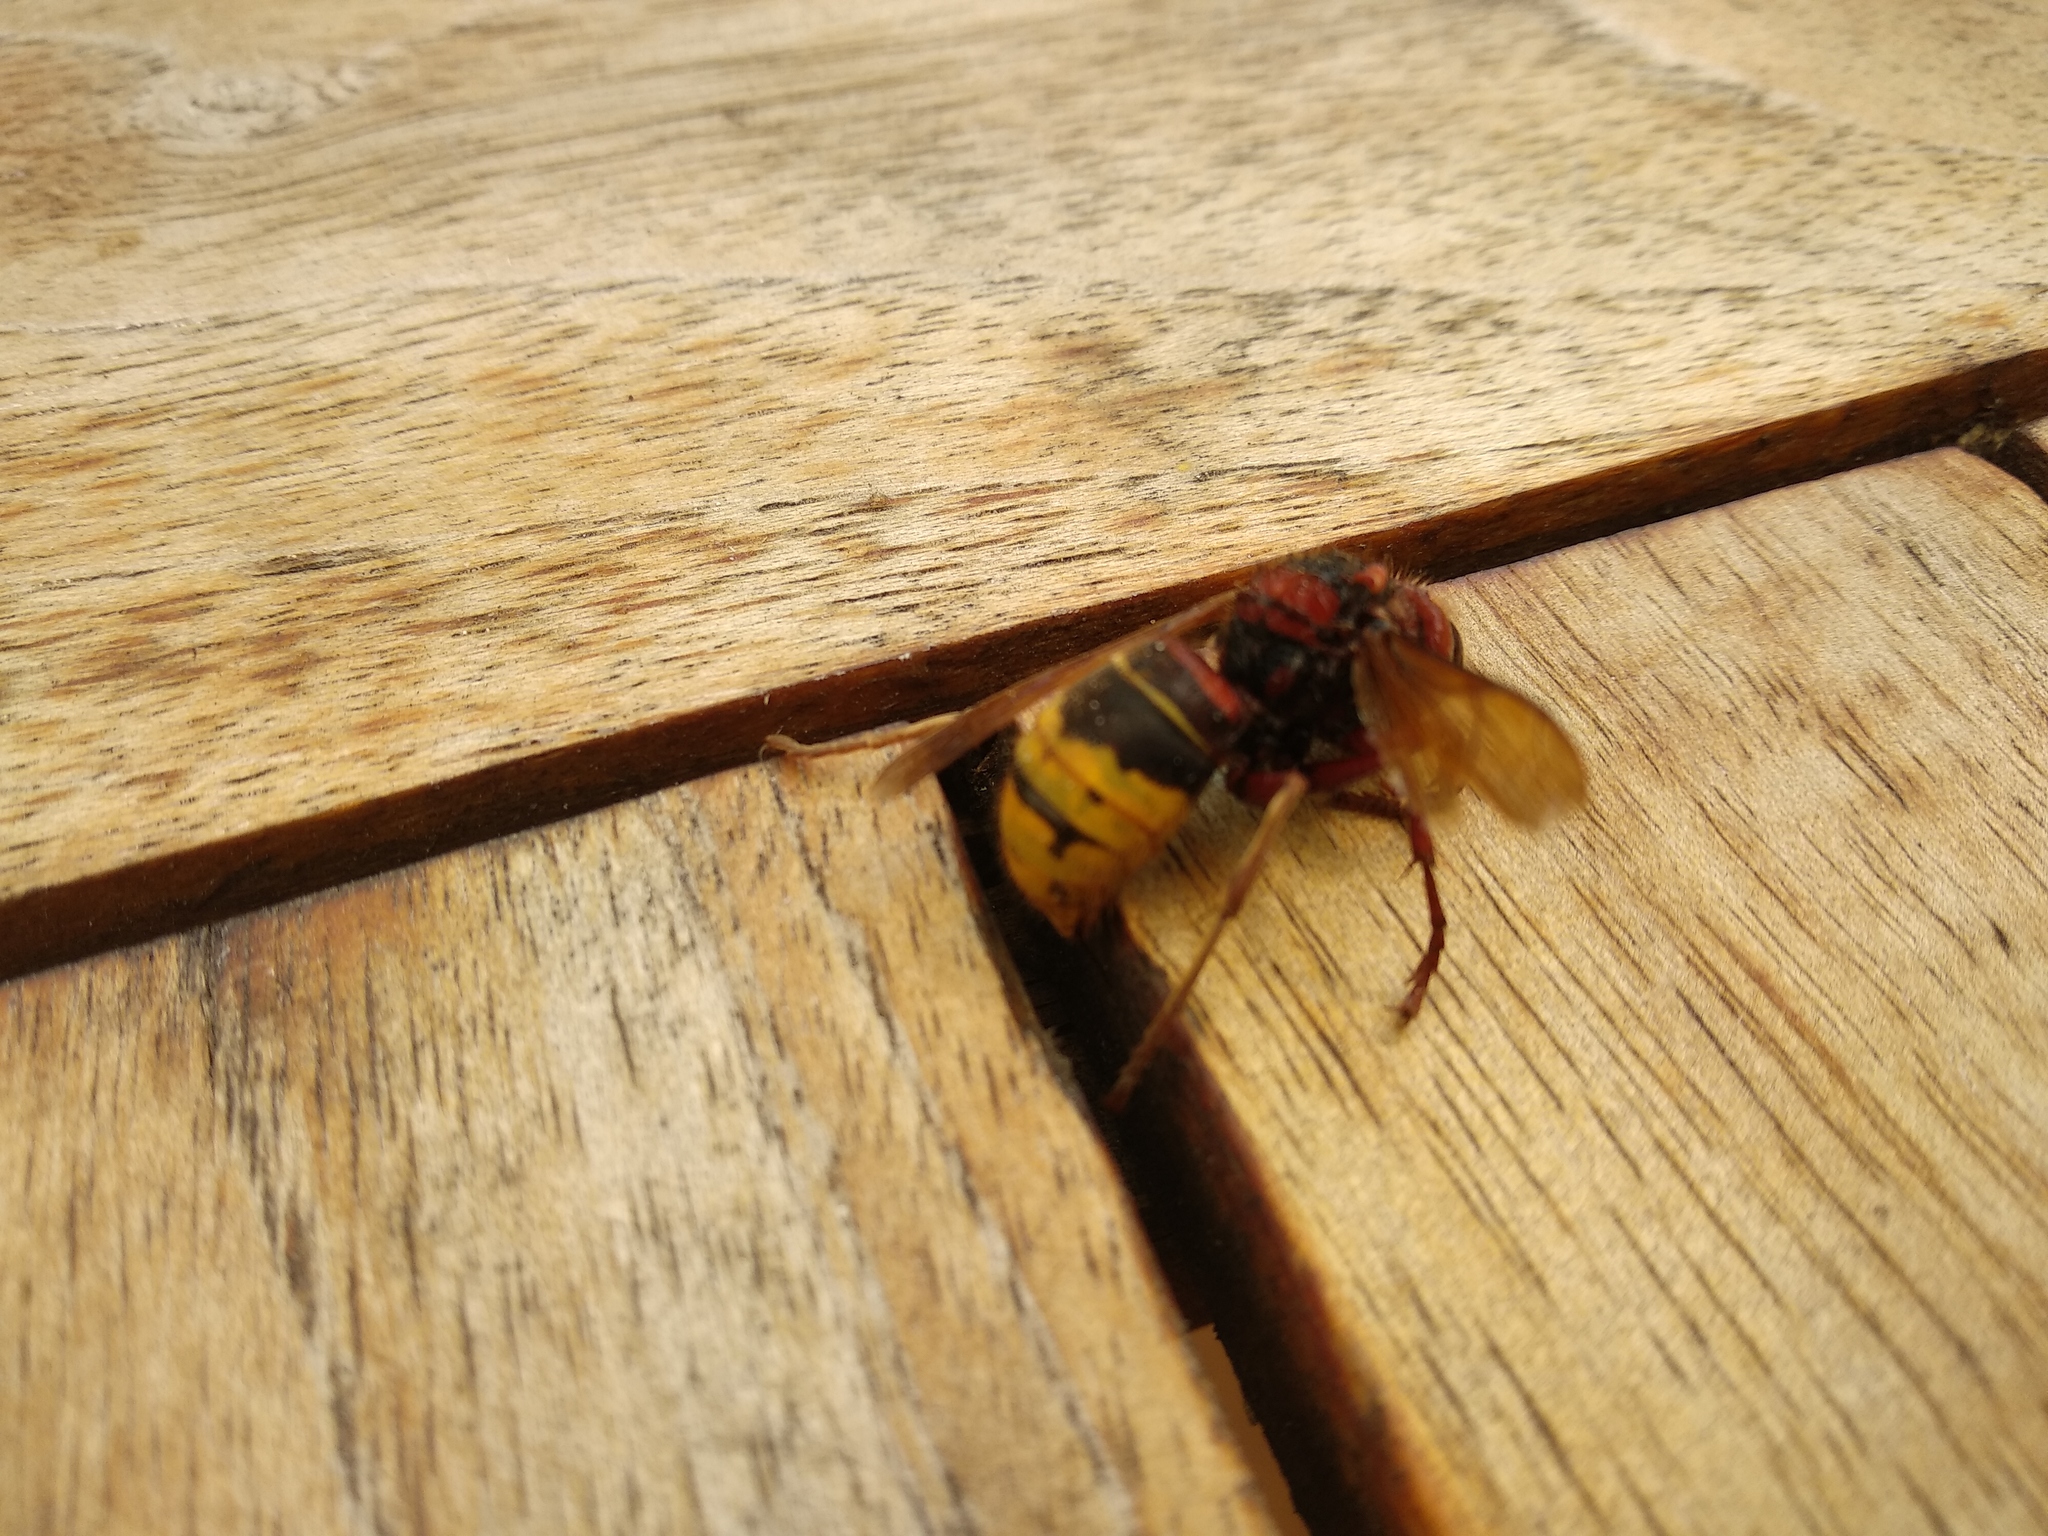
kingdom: Animalia
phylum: Arthropoda
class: Insecta
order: Hymenoptera
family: Vespidae
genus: Vespa
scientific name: Vespa crabro
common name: Hornet
